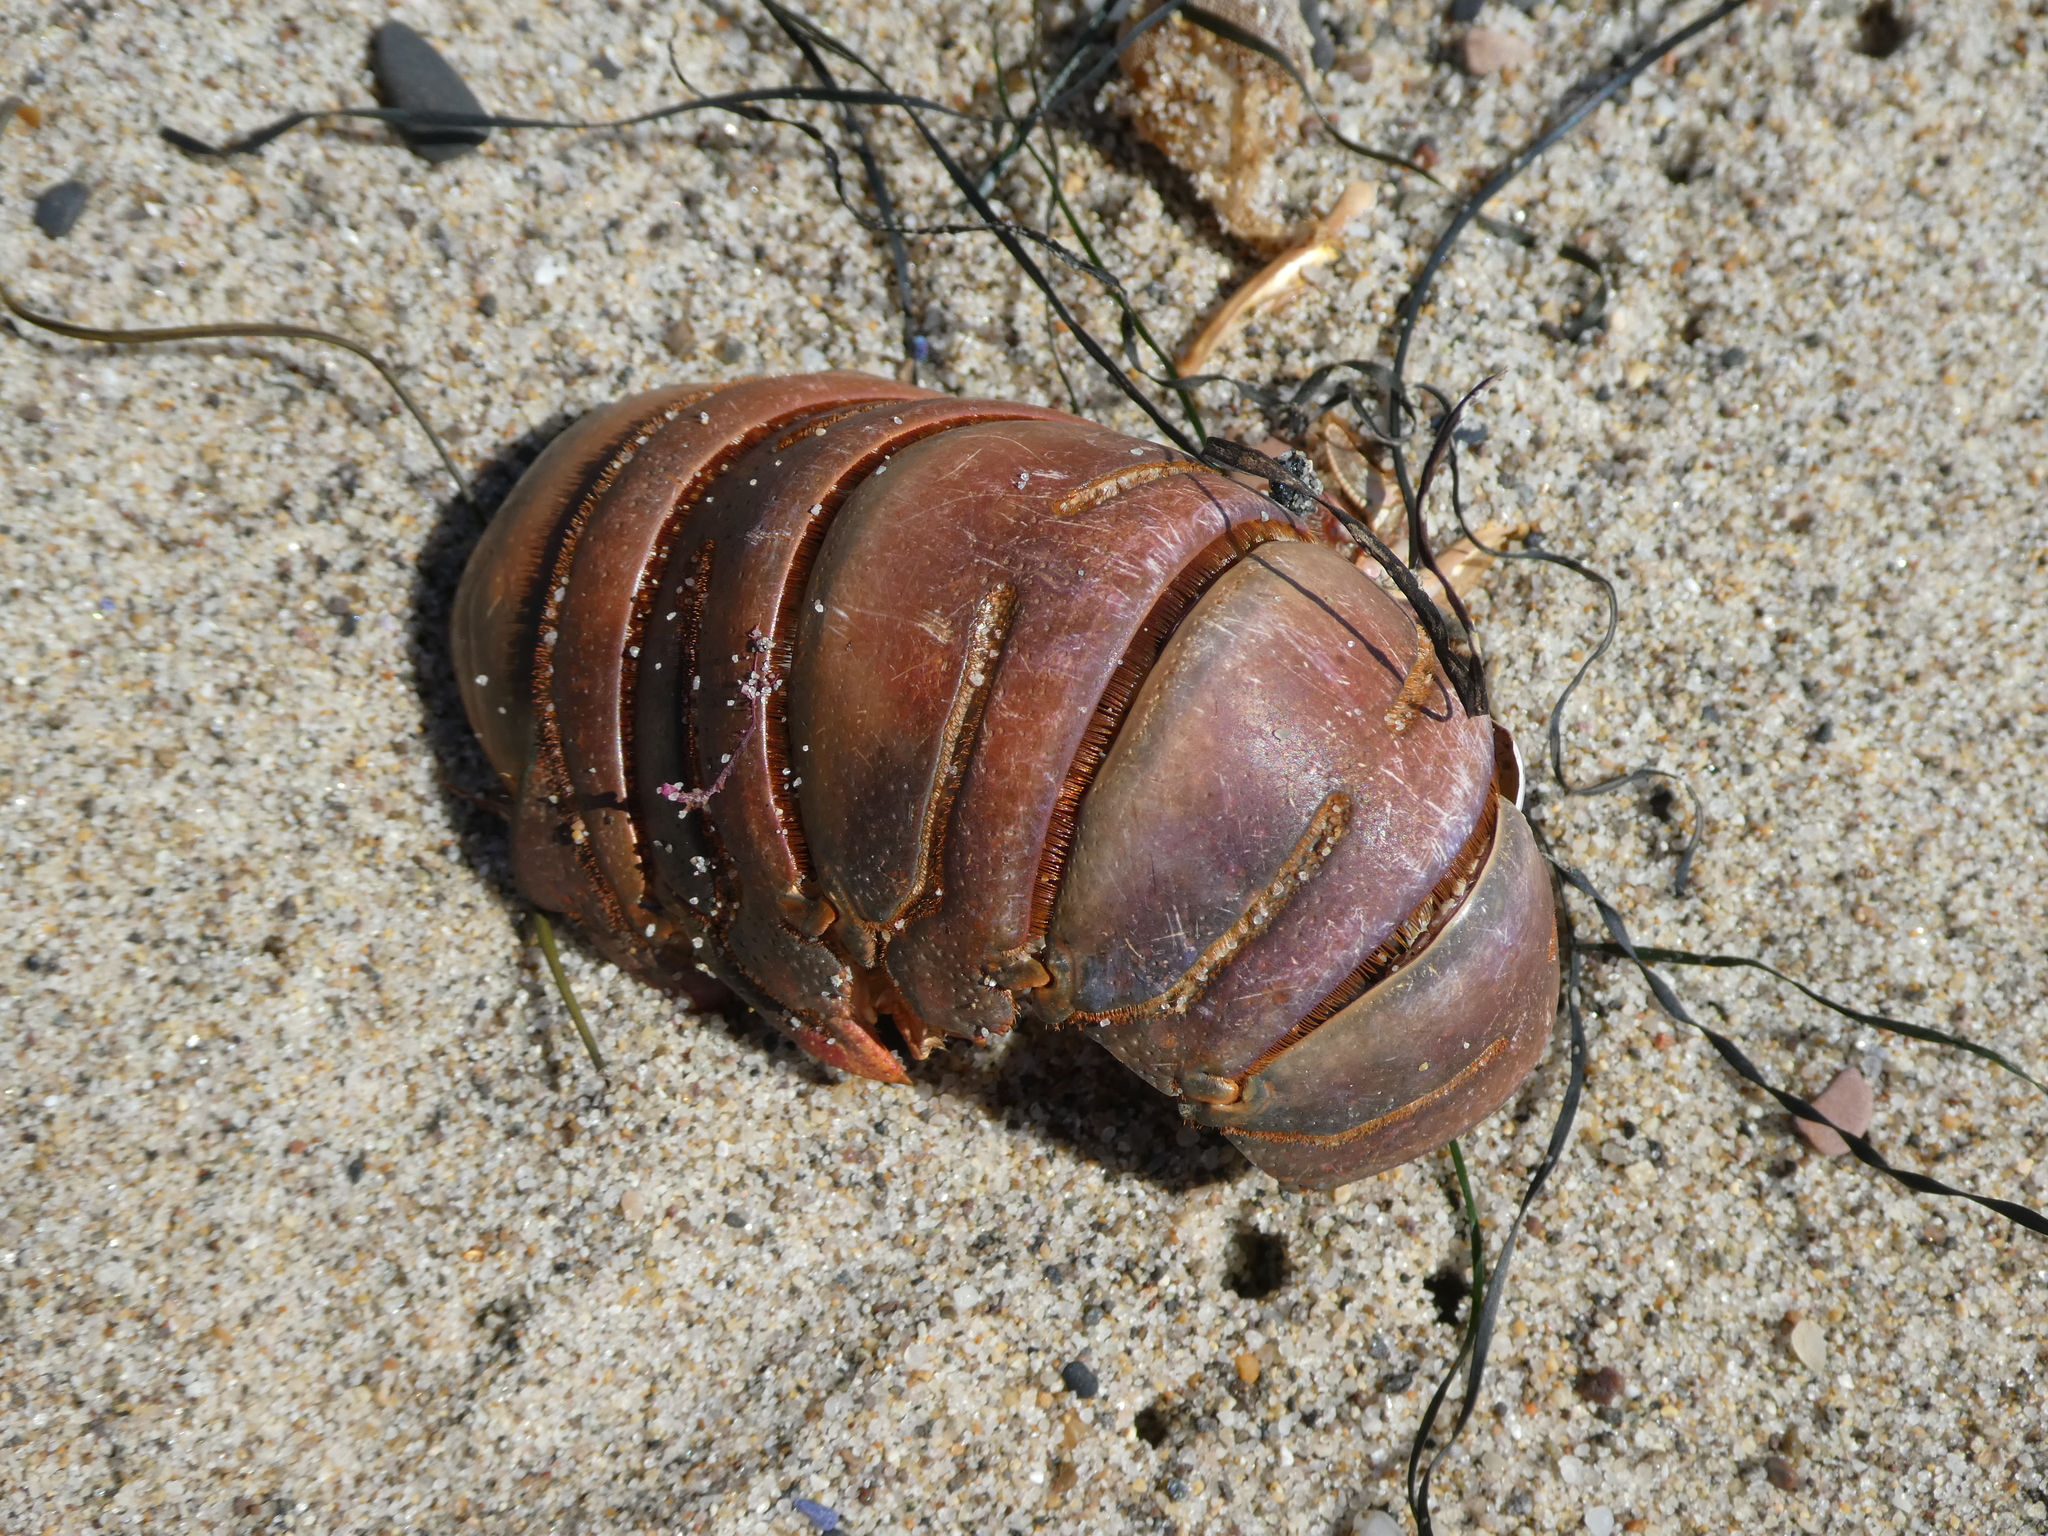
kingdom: Animalia
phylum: Arthropoda
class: Malacostraca
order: Decapoda
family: Palinuridae
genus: Panulirus
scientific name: Panulirus interruptus
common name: California spiny lobster
